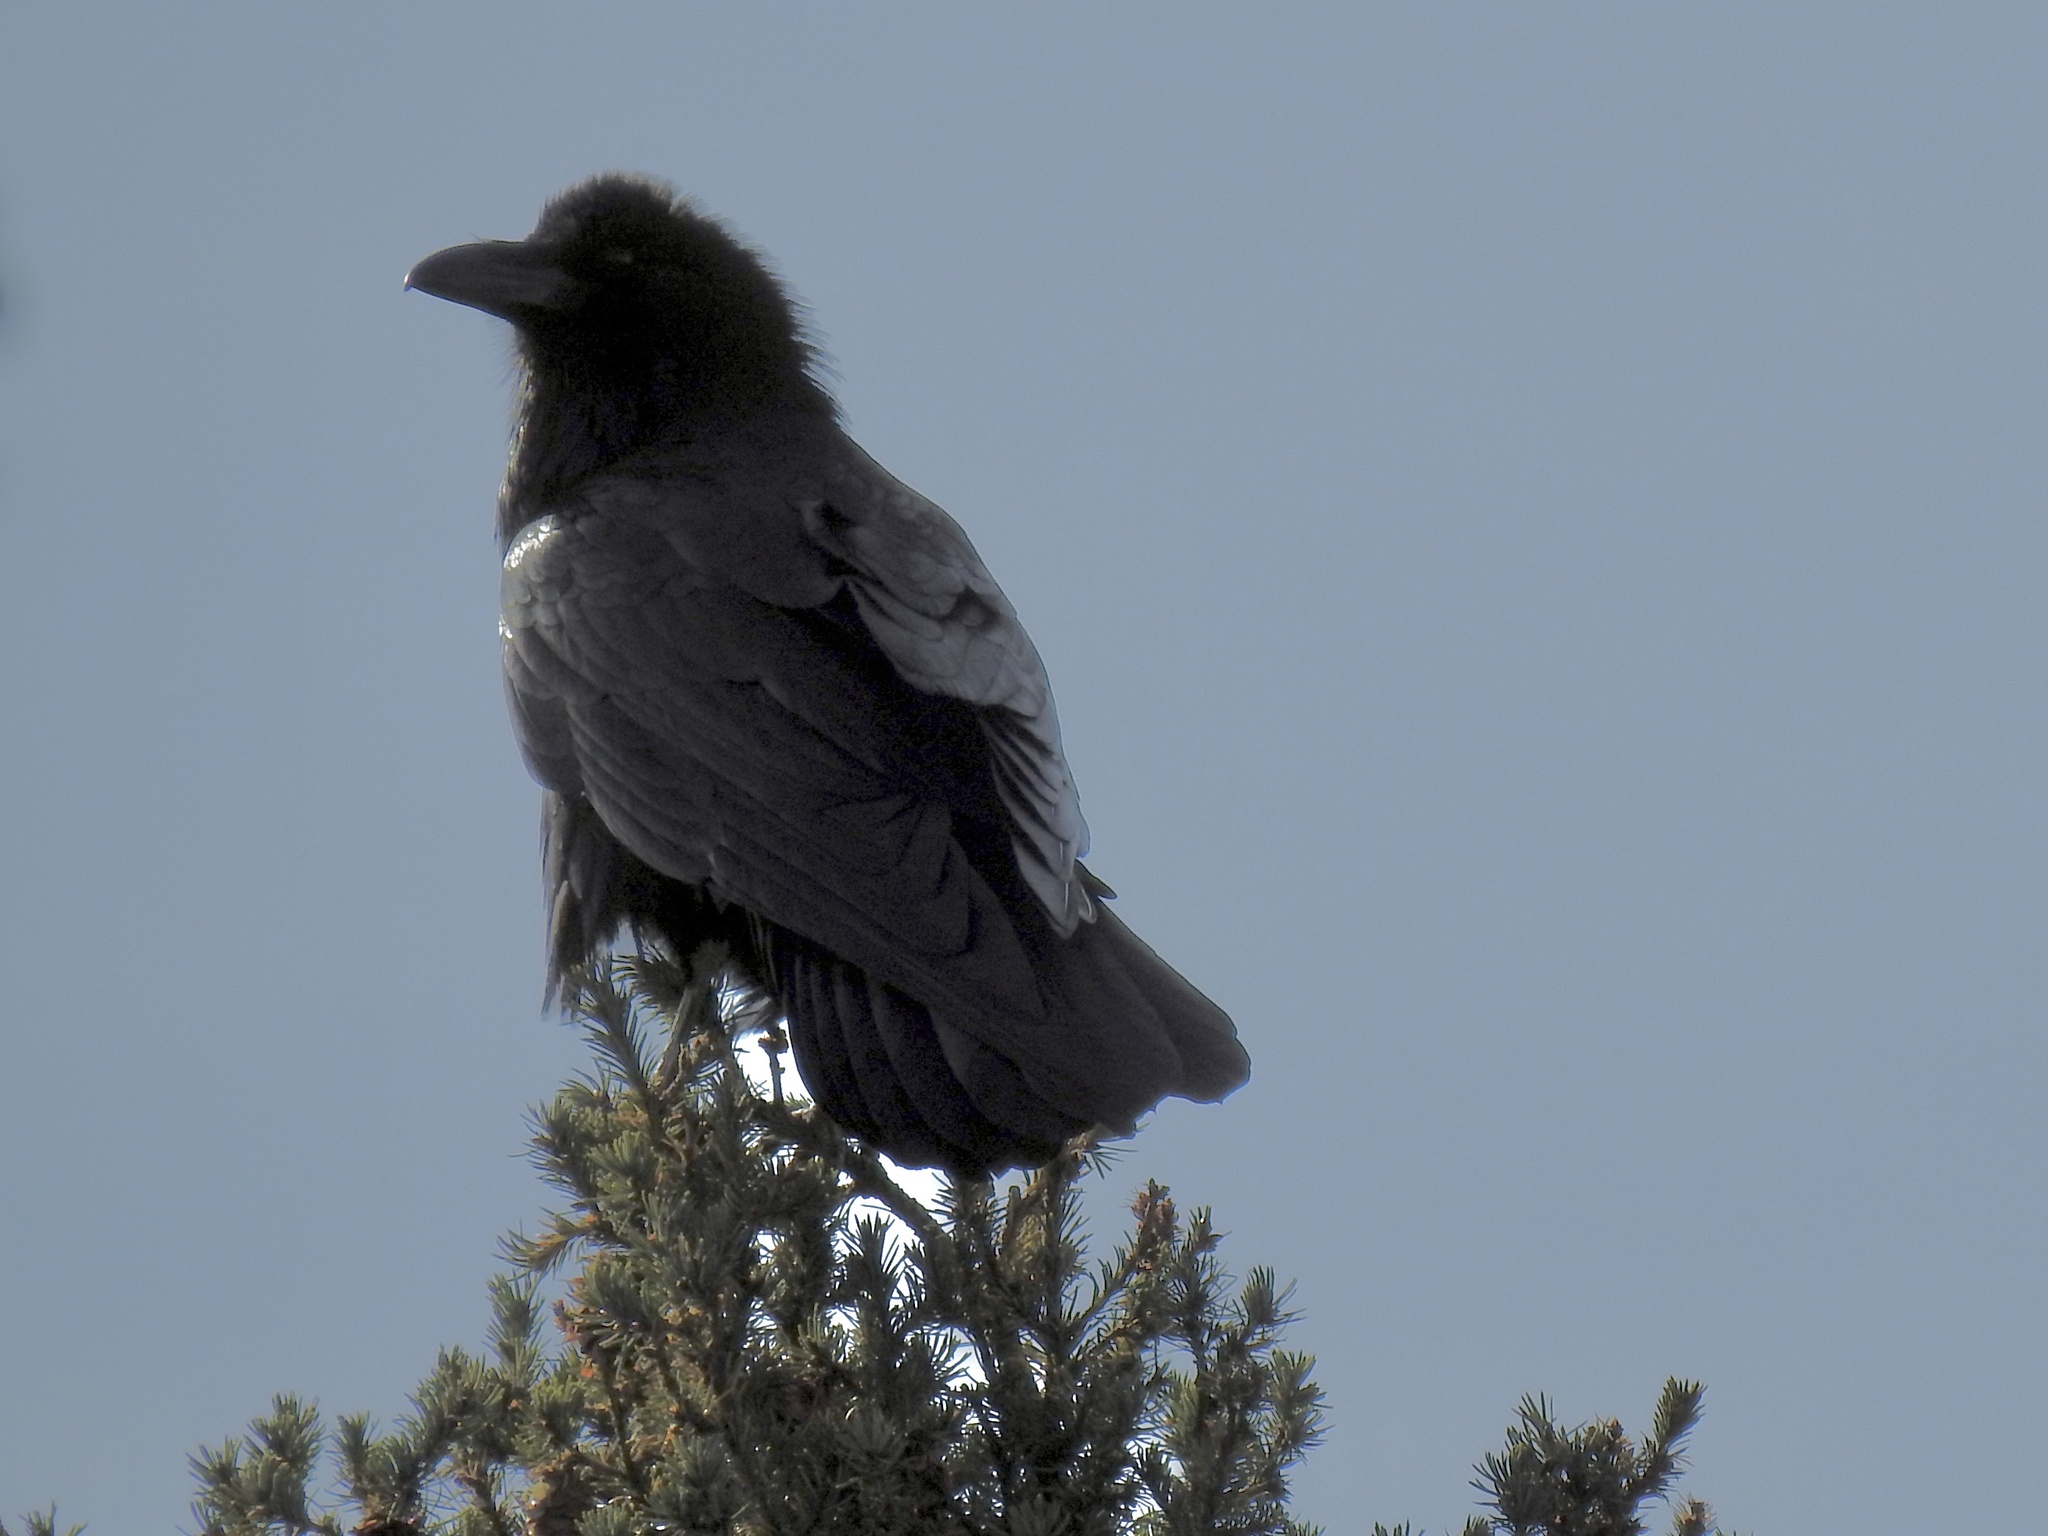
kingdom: Animalia
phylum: Chordata
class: Aves
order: Passeriformes
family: Corvidae
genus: Corvus
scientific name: Corvus corax
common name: Common raven
